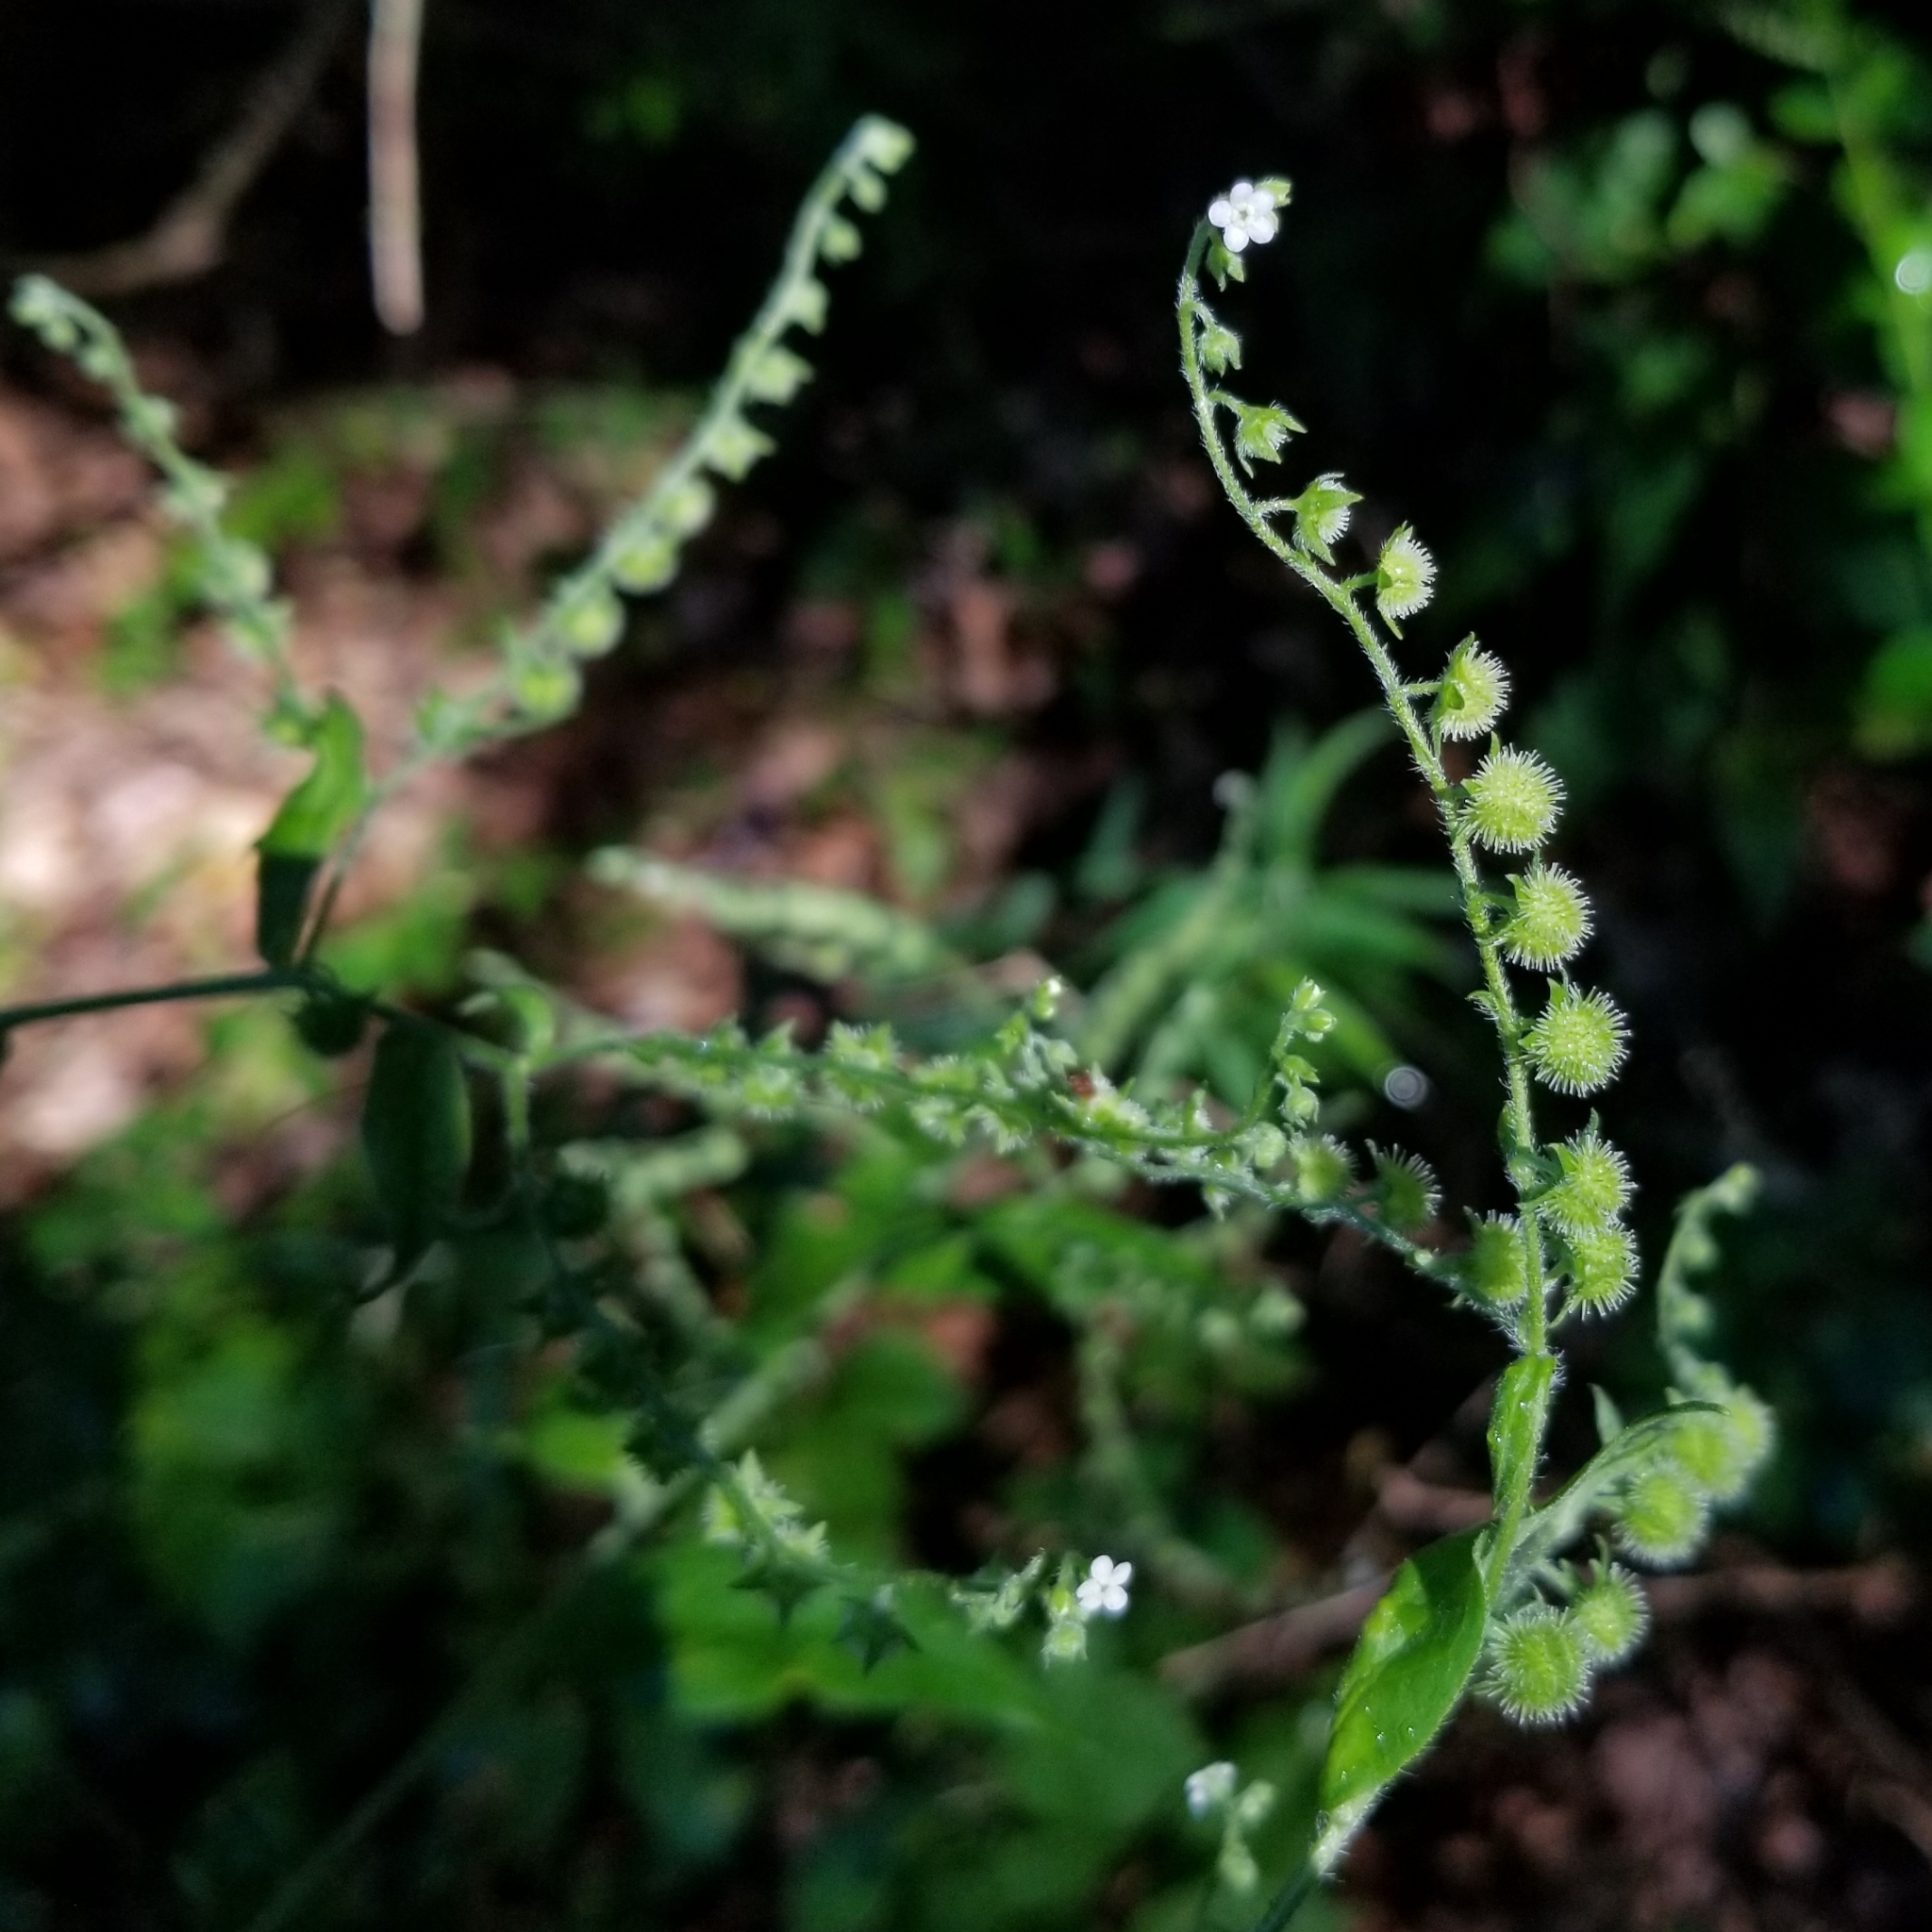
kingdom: Plantae
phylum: Tracheophyta
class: Magnoliopsida
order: Boraginales
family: Boraginaceae
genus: Hackelia
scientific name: Hackelia virginiana
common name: Beggar's-lice
